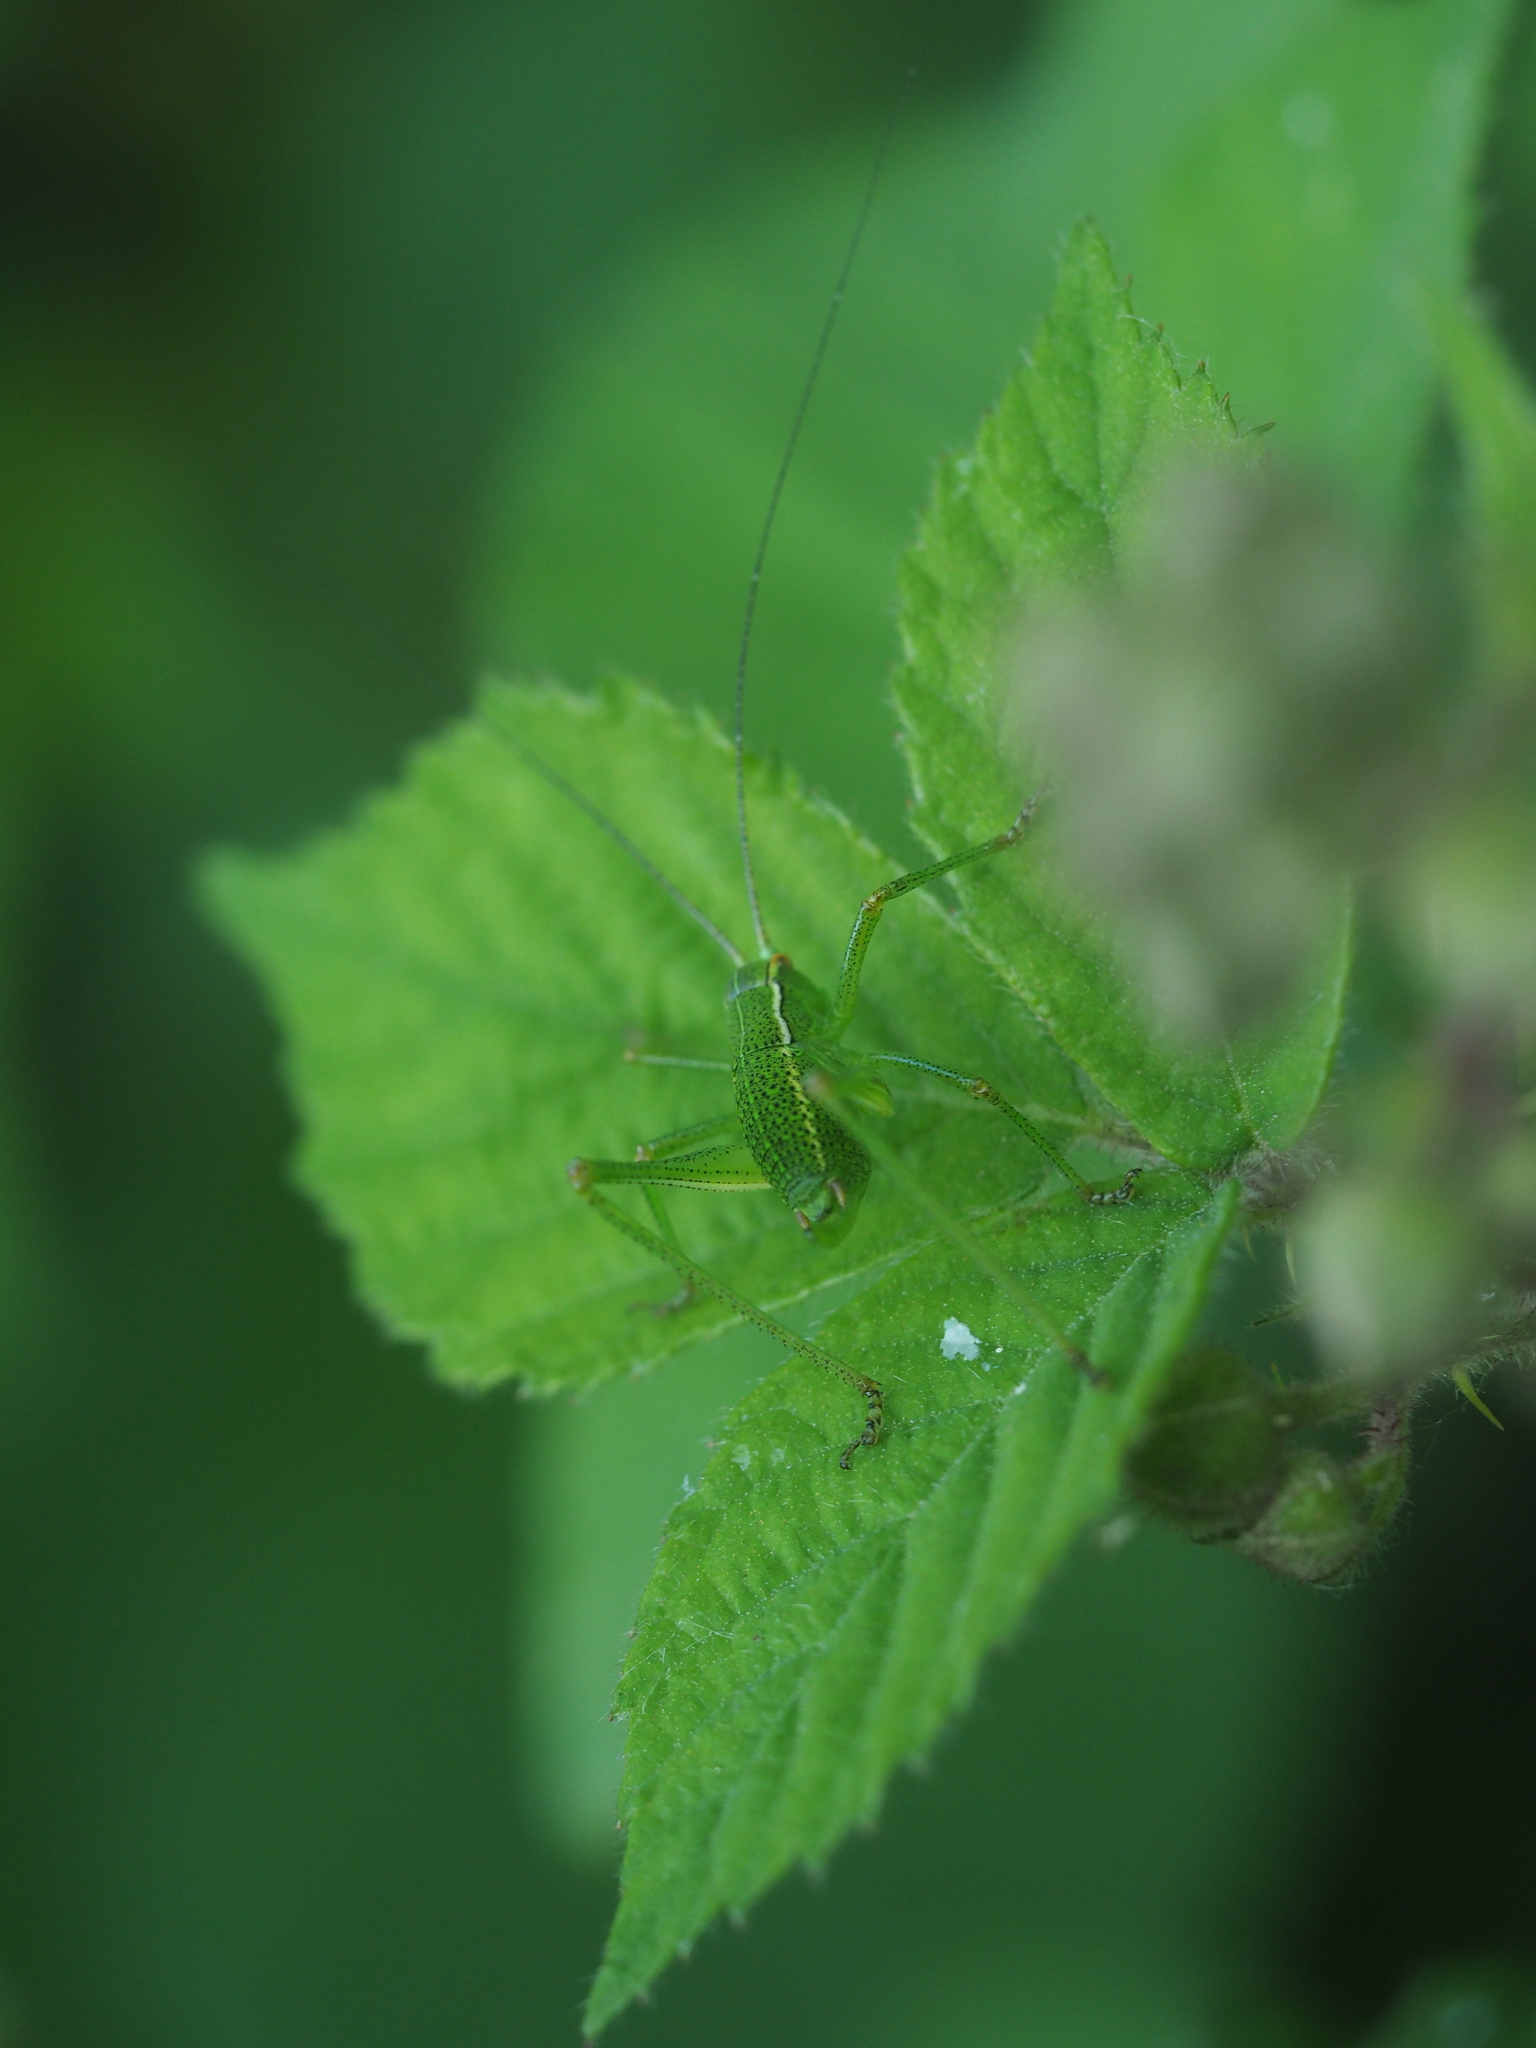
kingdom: Animalia
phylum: Arthropoda
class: Insecta
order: Orthoptera
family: Tettigoniidae
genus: Barbitistes
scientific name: Barbitistes serricauda
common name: Saw-tailed bush-cricket
